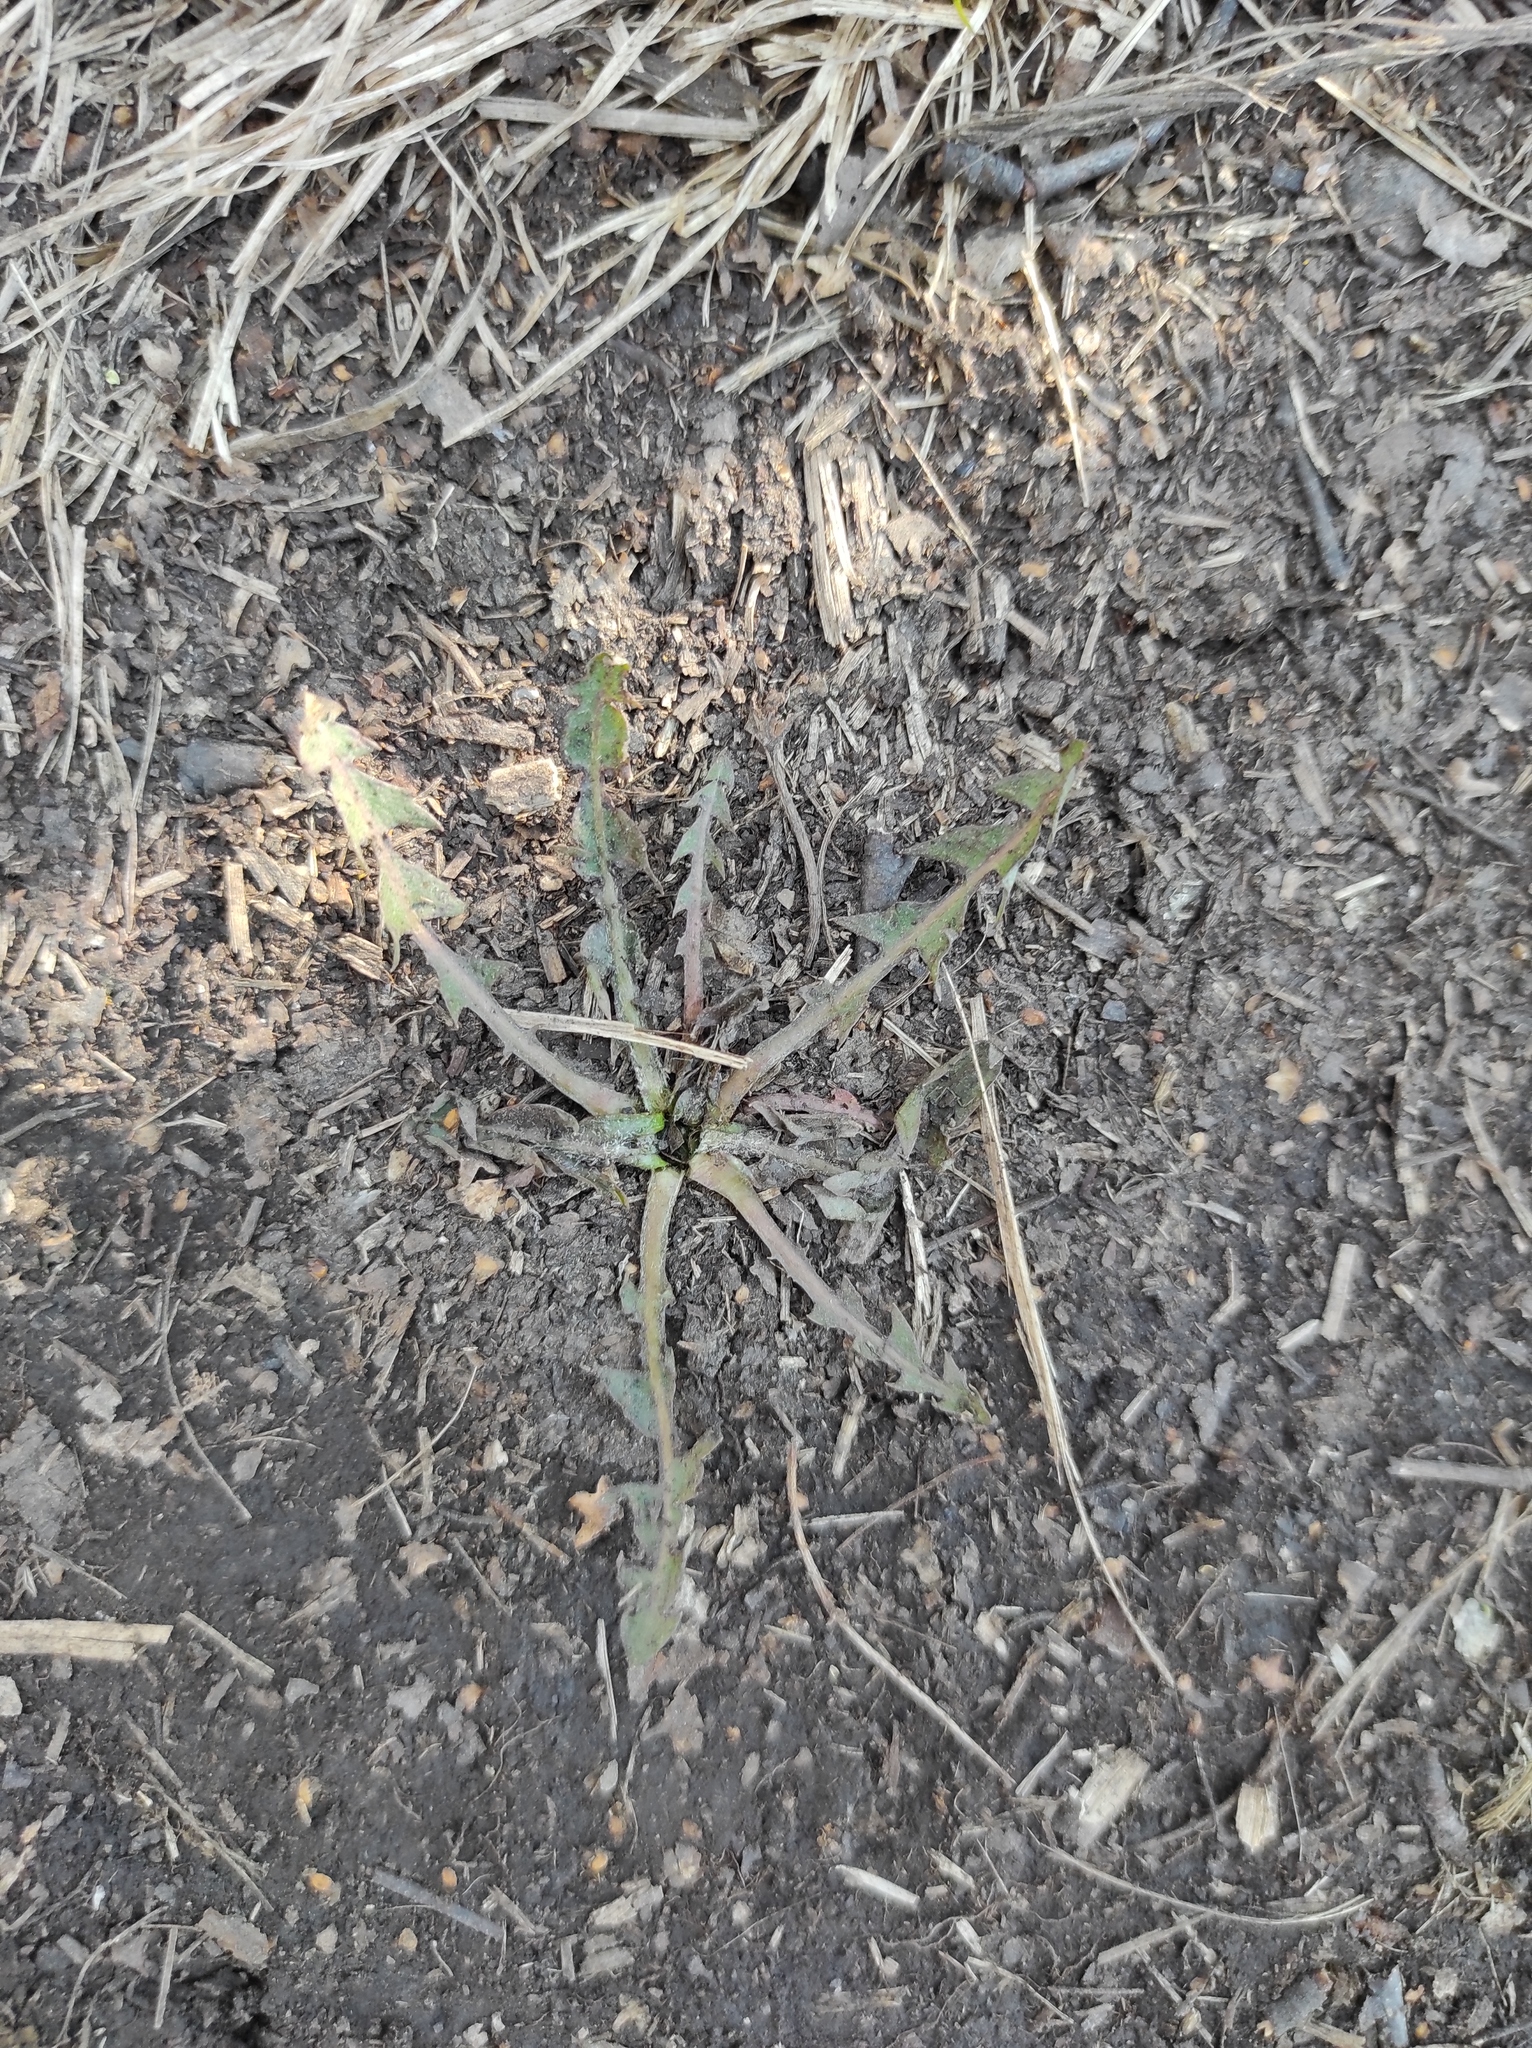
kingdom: Plantae
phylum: Tracheophyta
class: Magnoliopsida
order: Asterales
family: Asteraceae
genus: Taraxacum
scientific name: Taraxacum officinale
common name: Common dandelion
